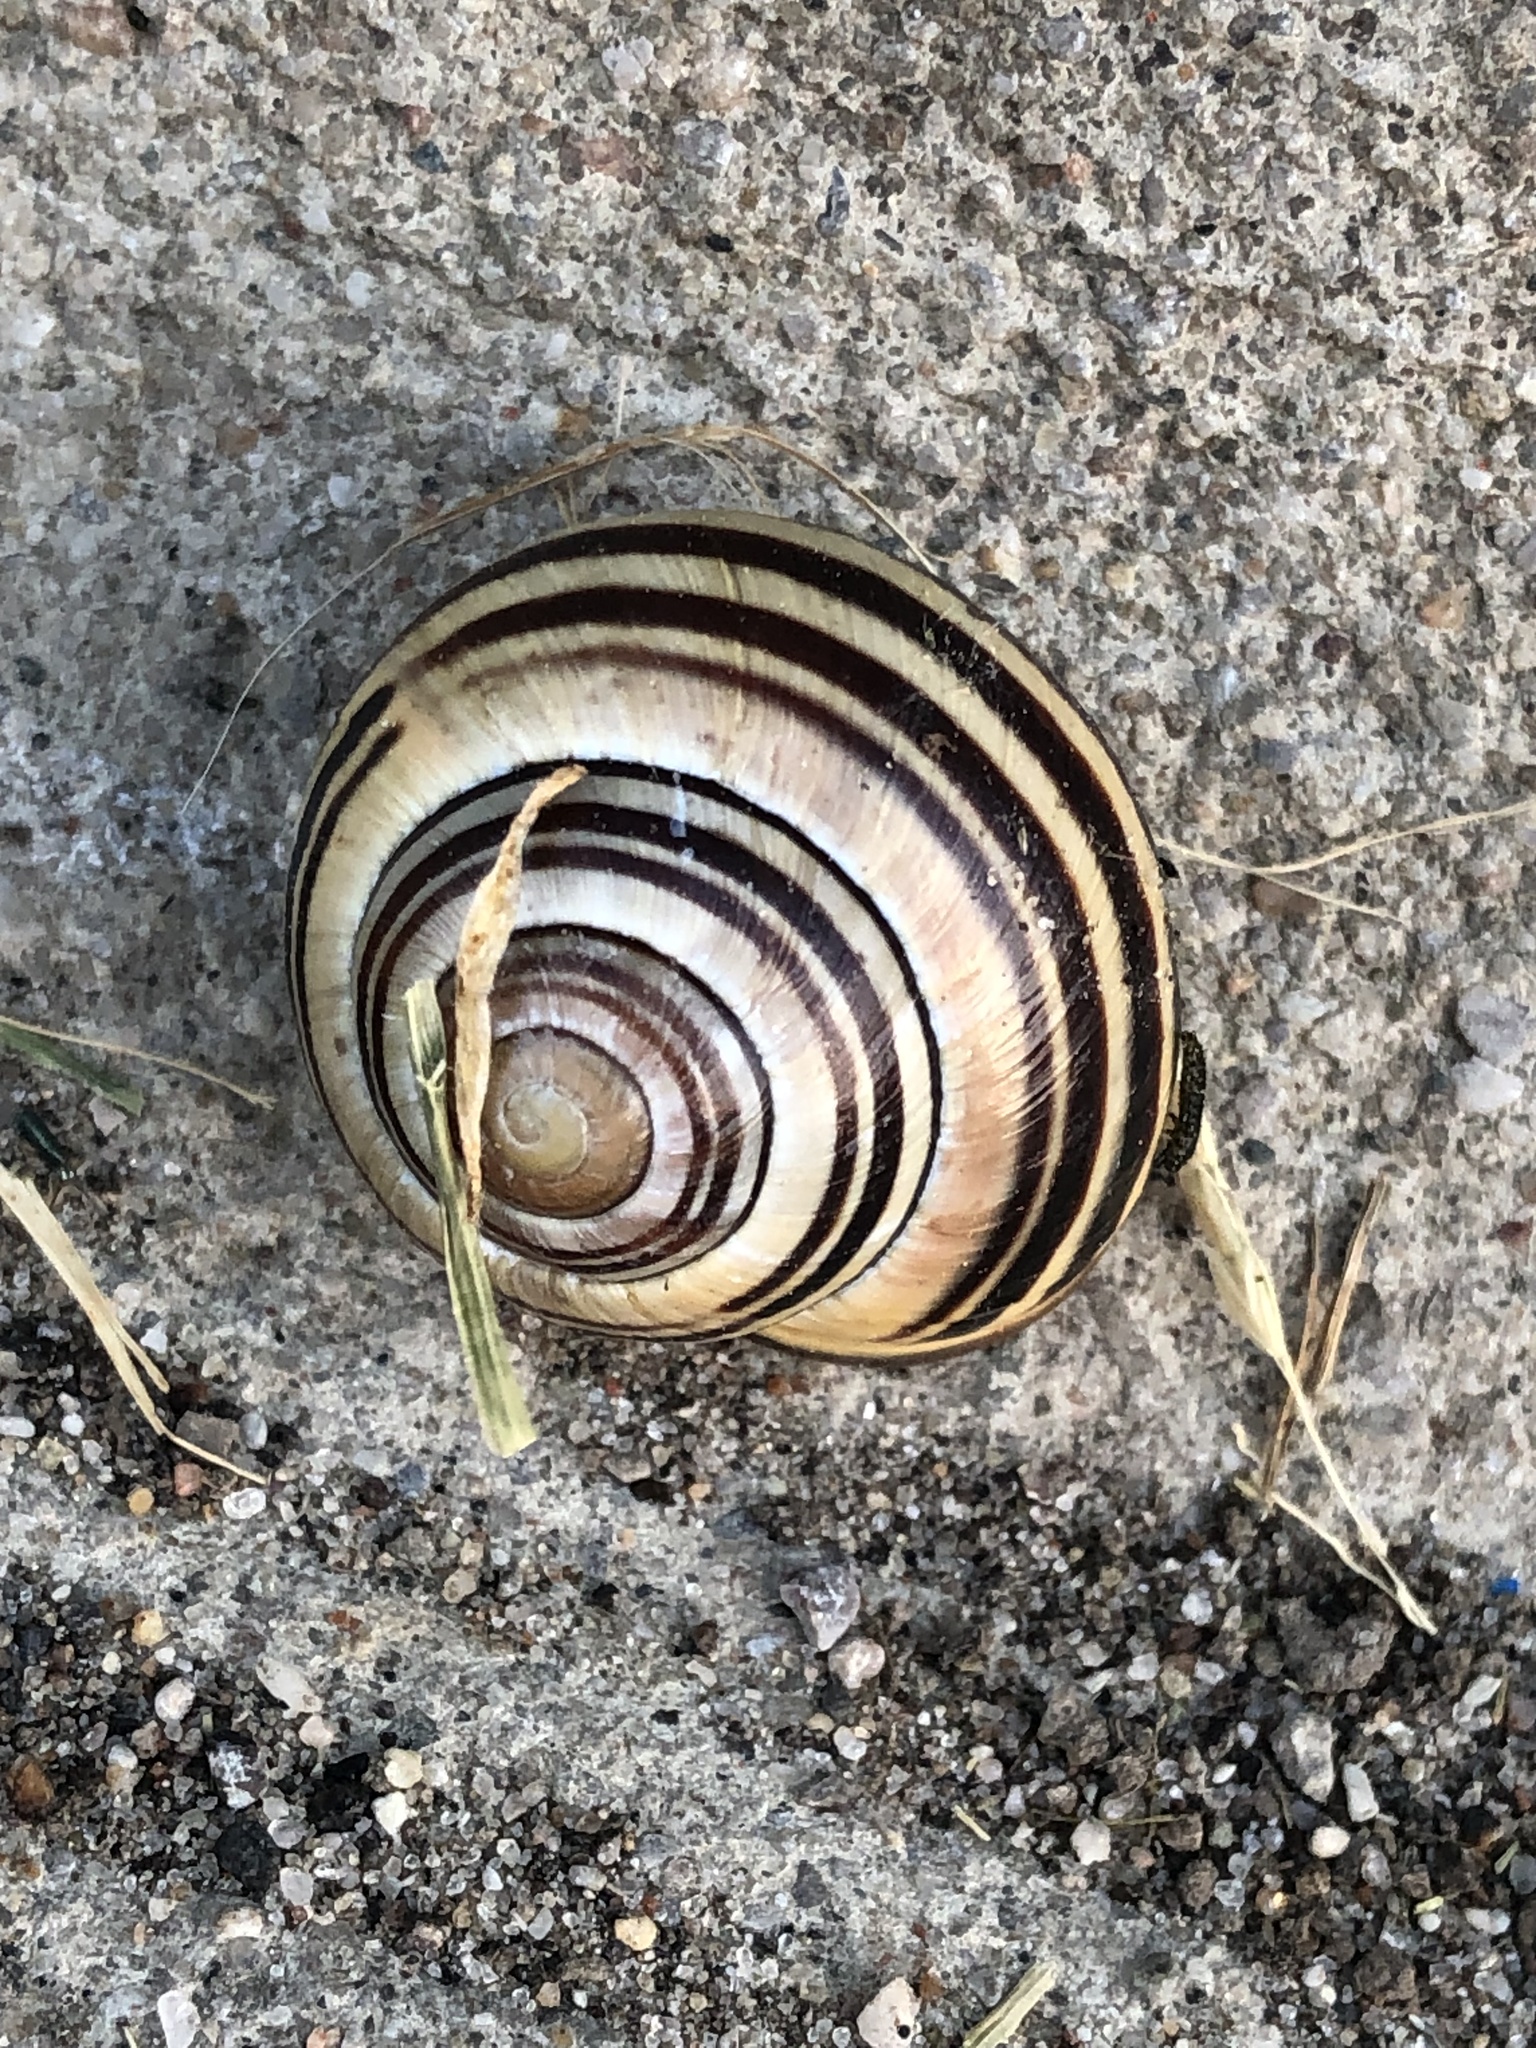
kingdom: Animalia
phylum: Mollusca
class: Gastropoda
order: Stylommatophora
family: Helicidae
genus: Cepaea
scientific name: Cepaea nemoralis
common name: Grovesnail
